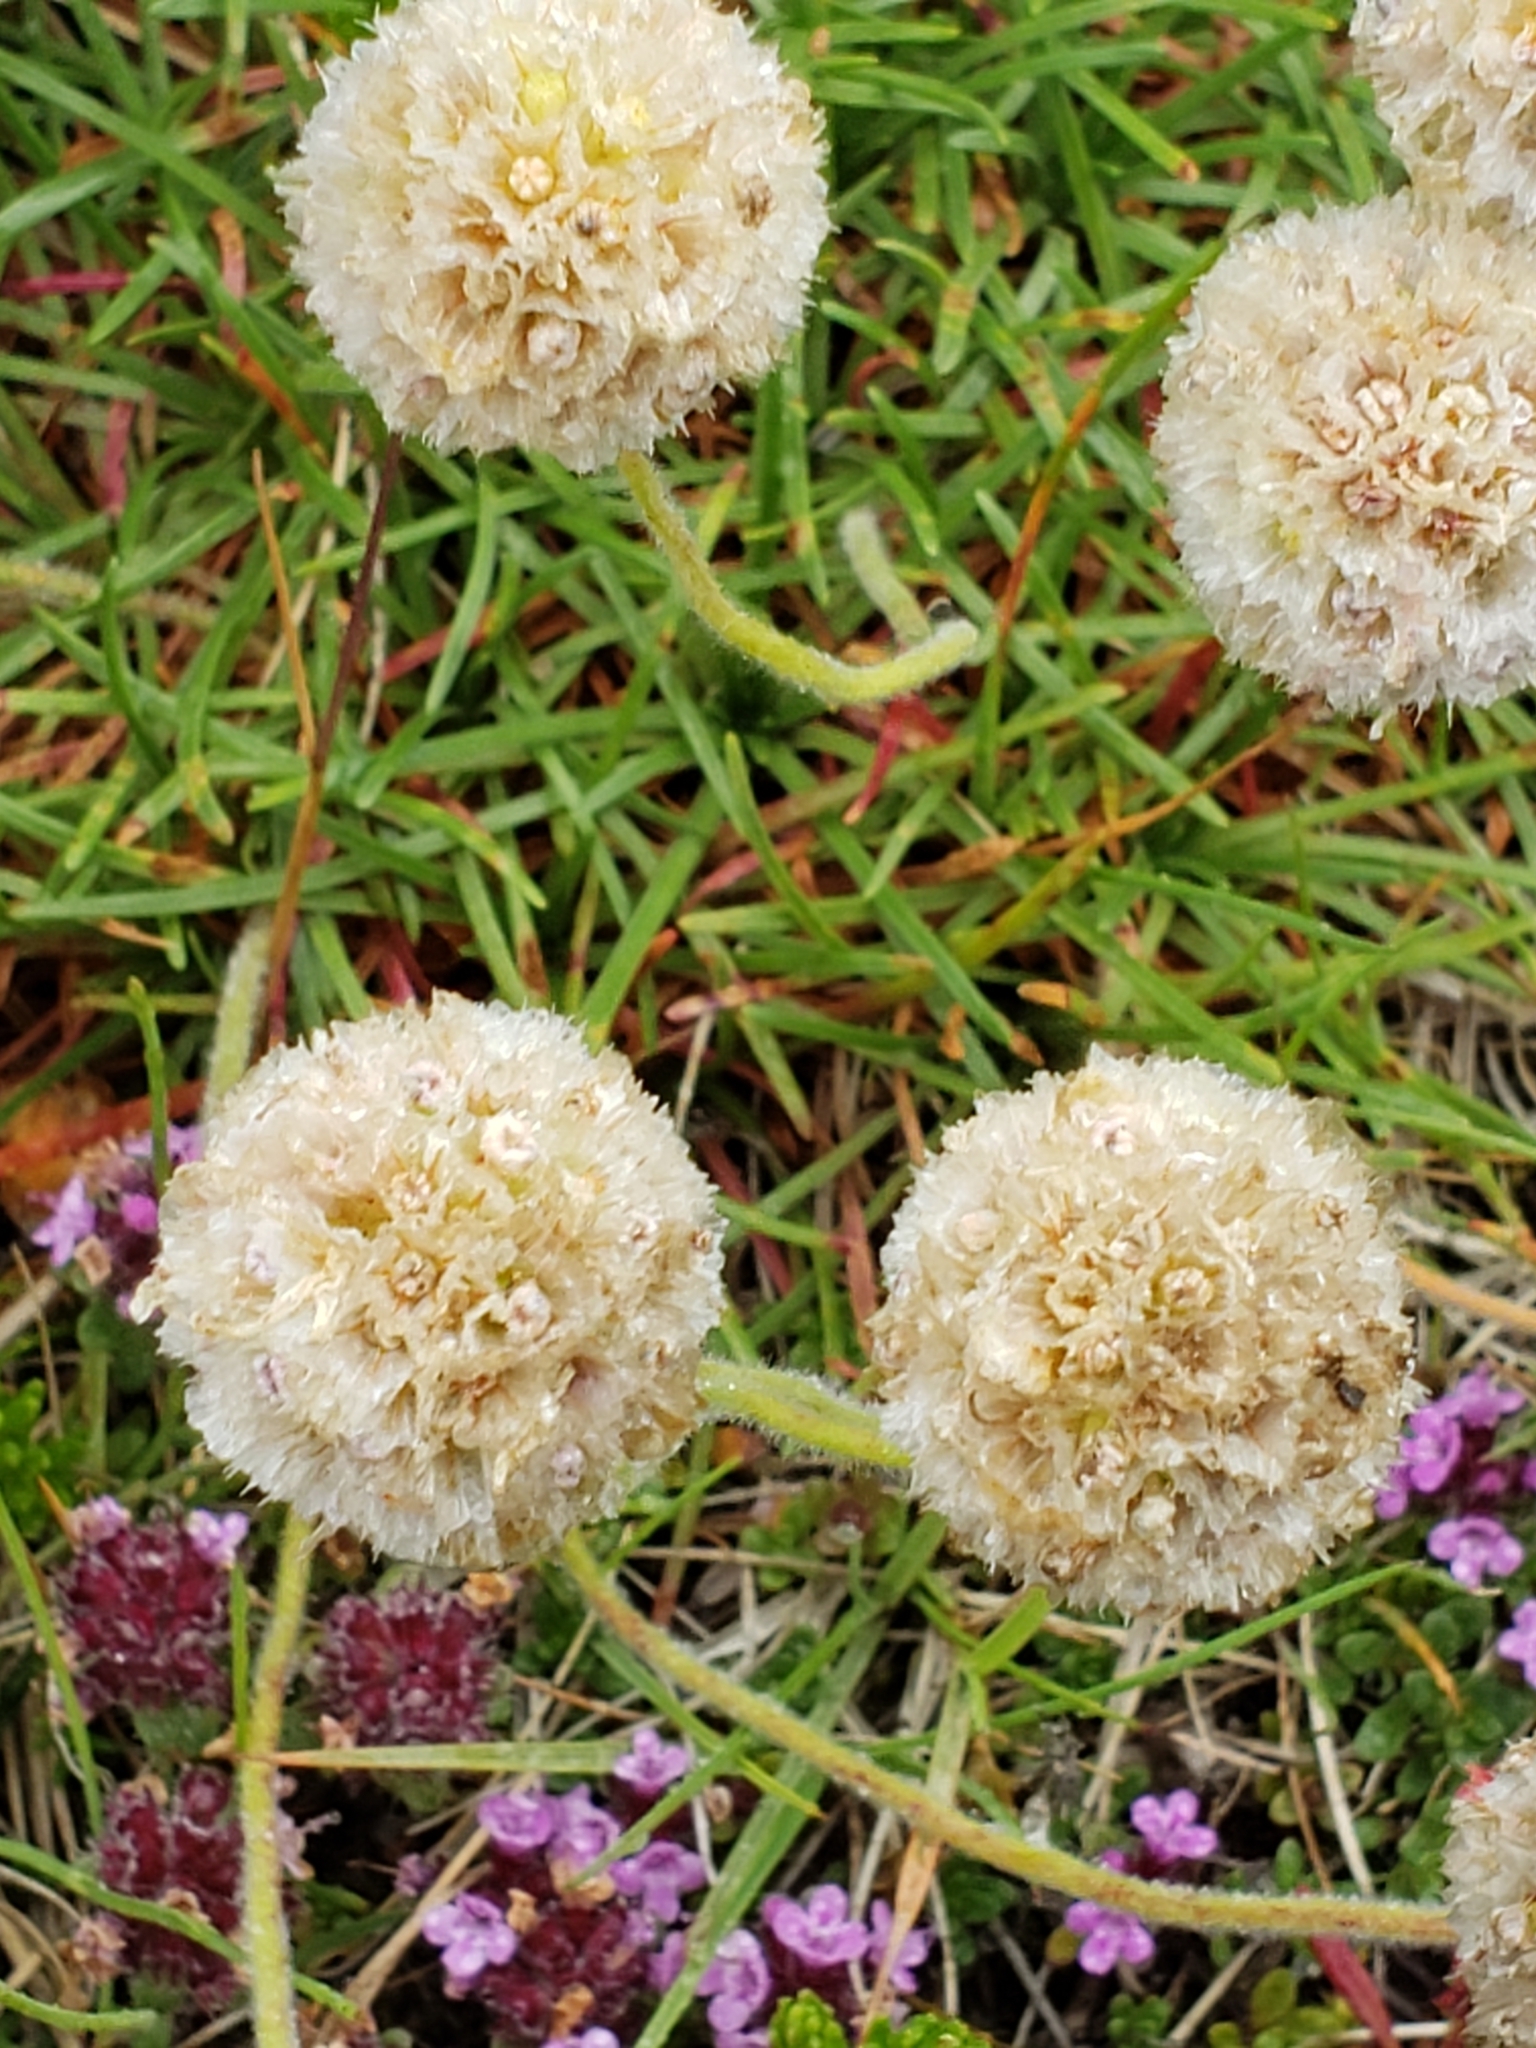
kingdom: Plantae
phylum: Tracheophyta
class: Magnoliopsida
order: Caryophyllales
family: Plumbaginaceae
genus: Armeria
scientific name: Armeria maritima
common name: Thrift
